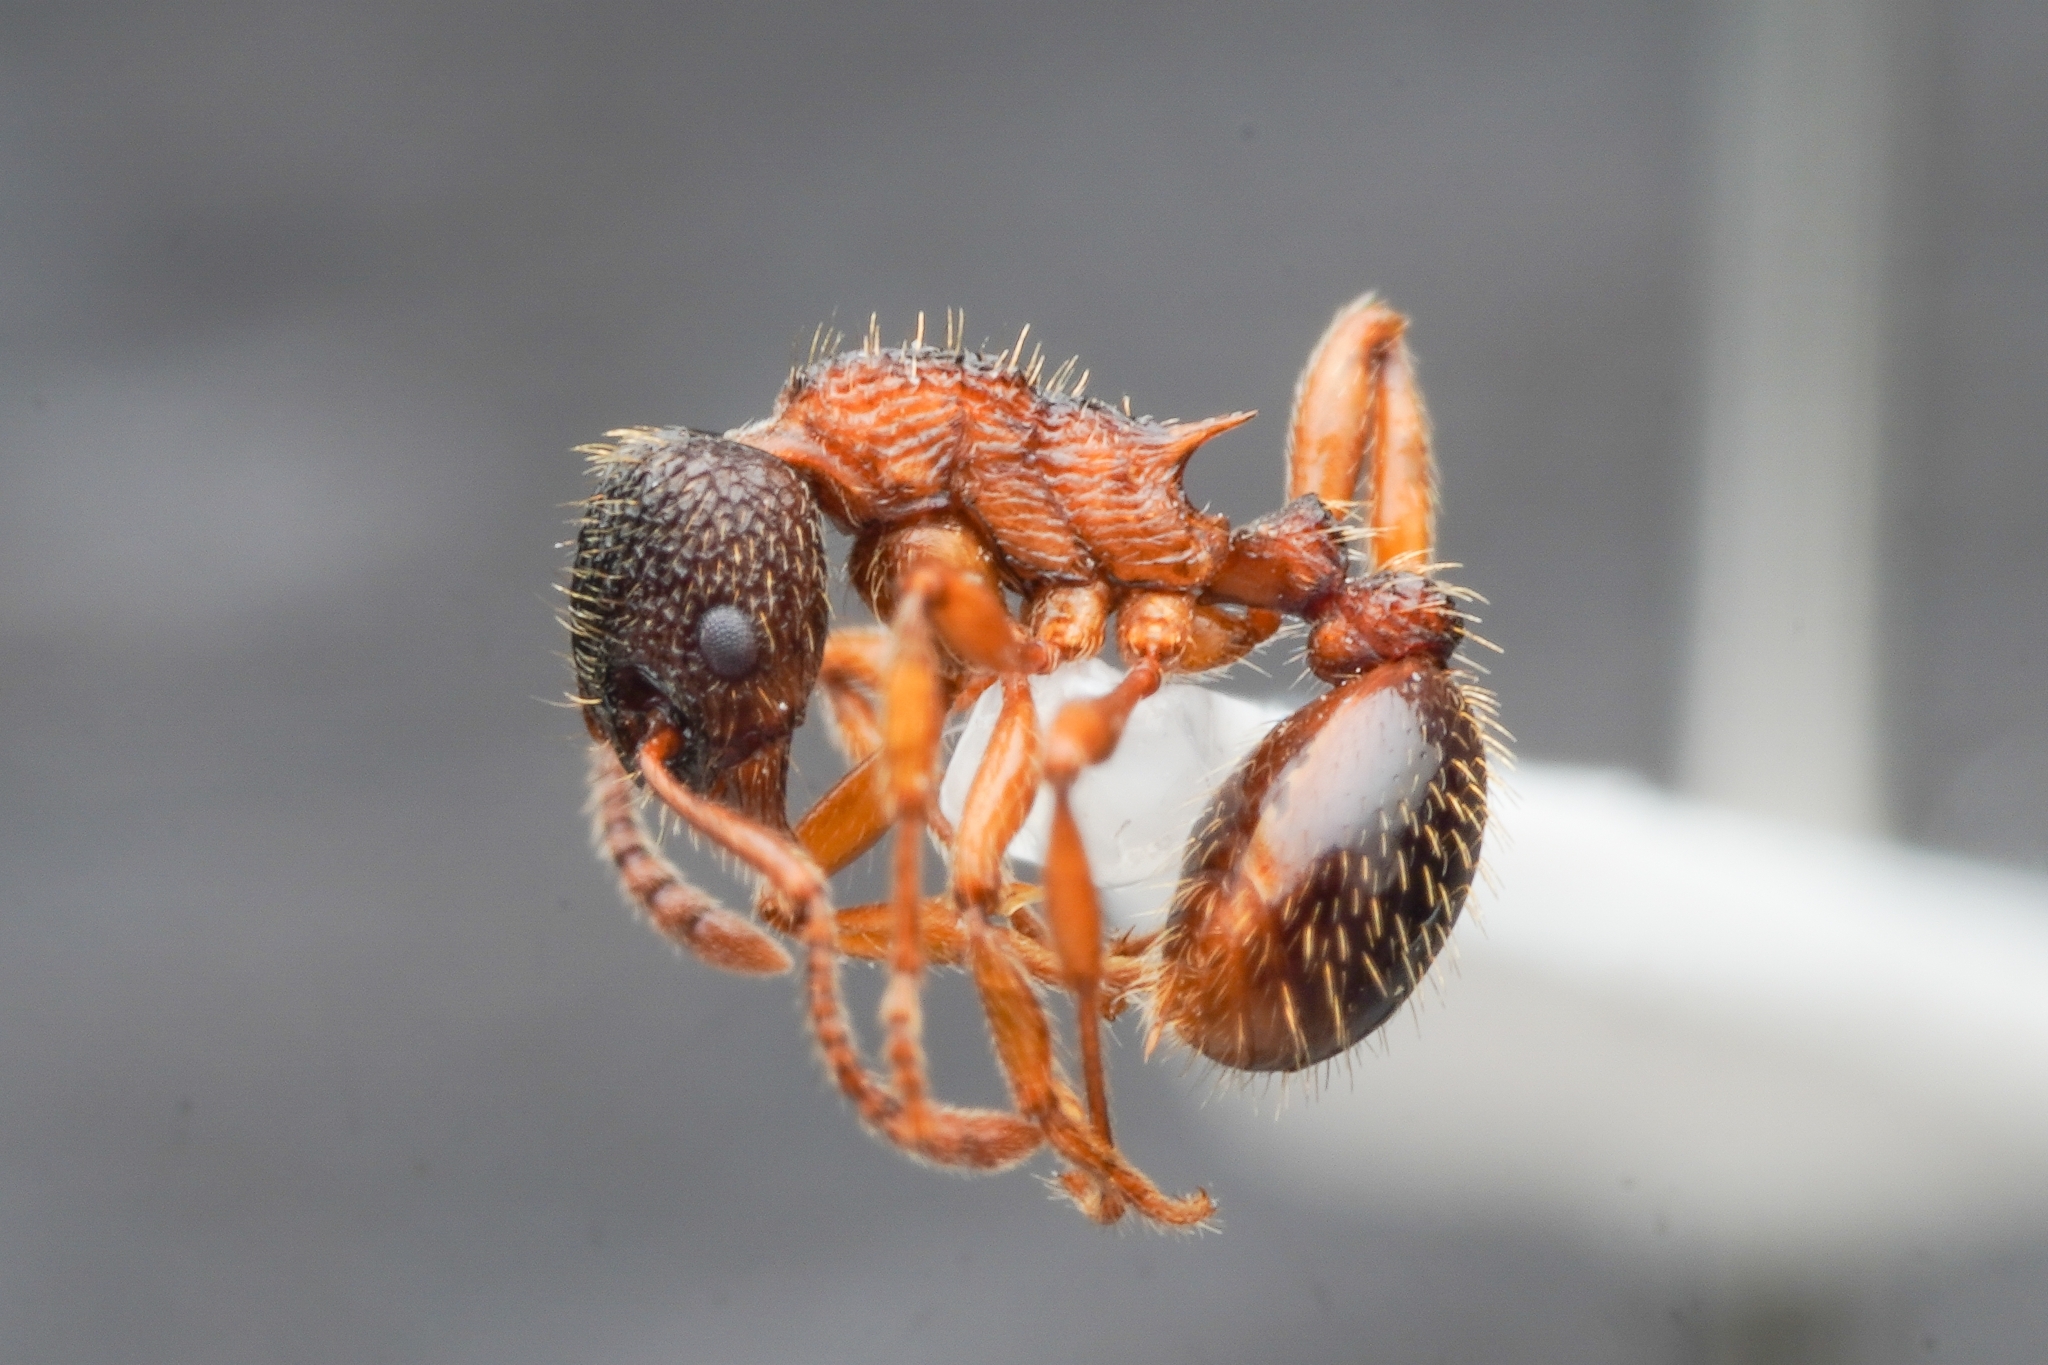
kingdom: Animalia
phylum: Arthropoda
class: Insecta
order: Hymenoptera
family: Formicidae
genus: Myrmica
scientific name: Myrmica angulinodis
